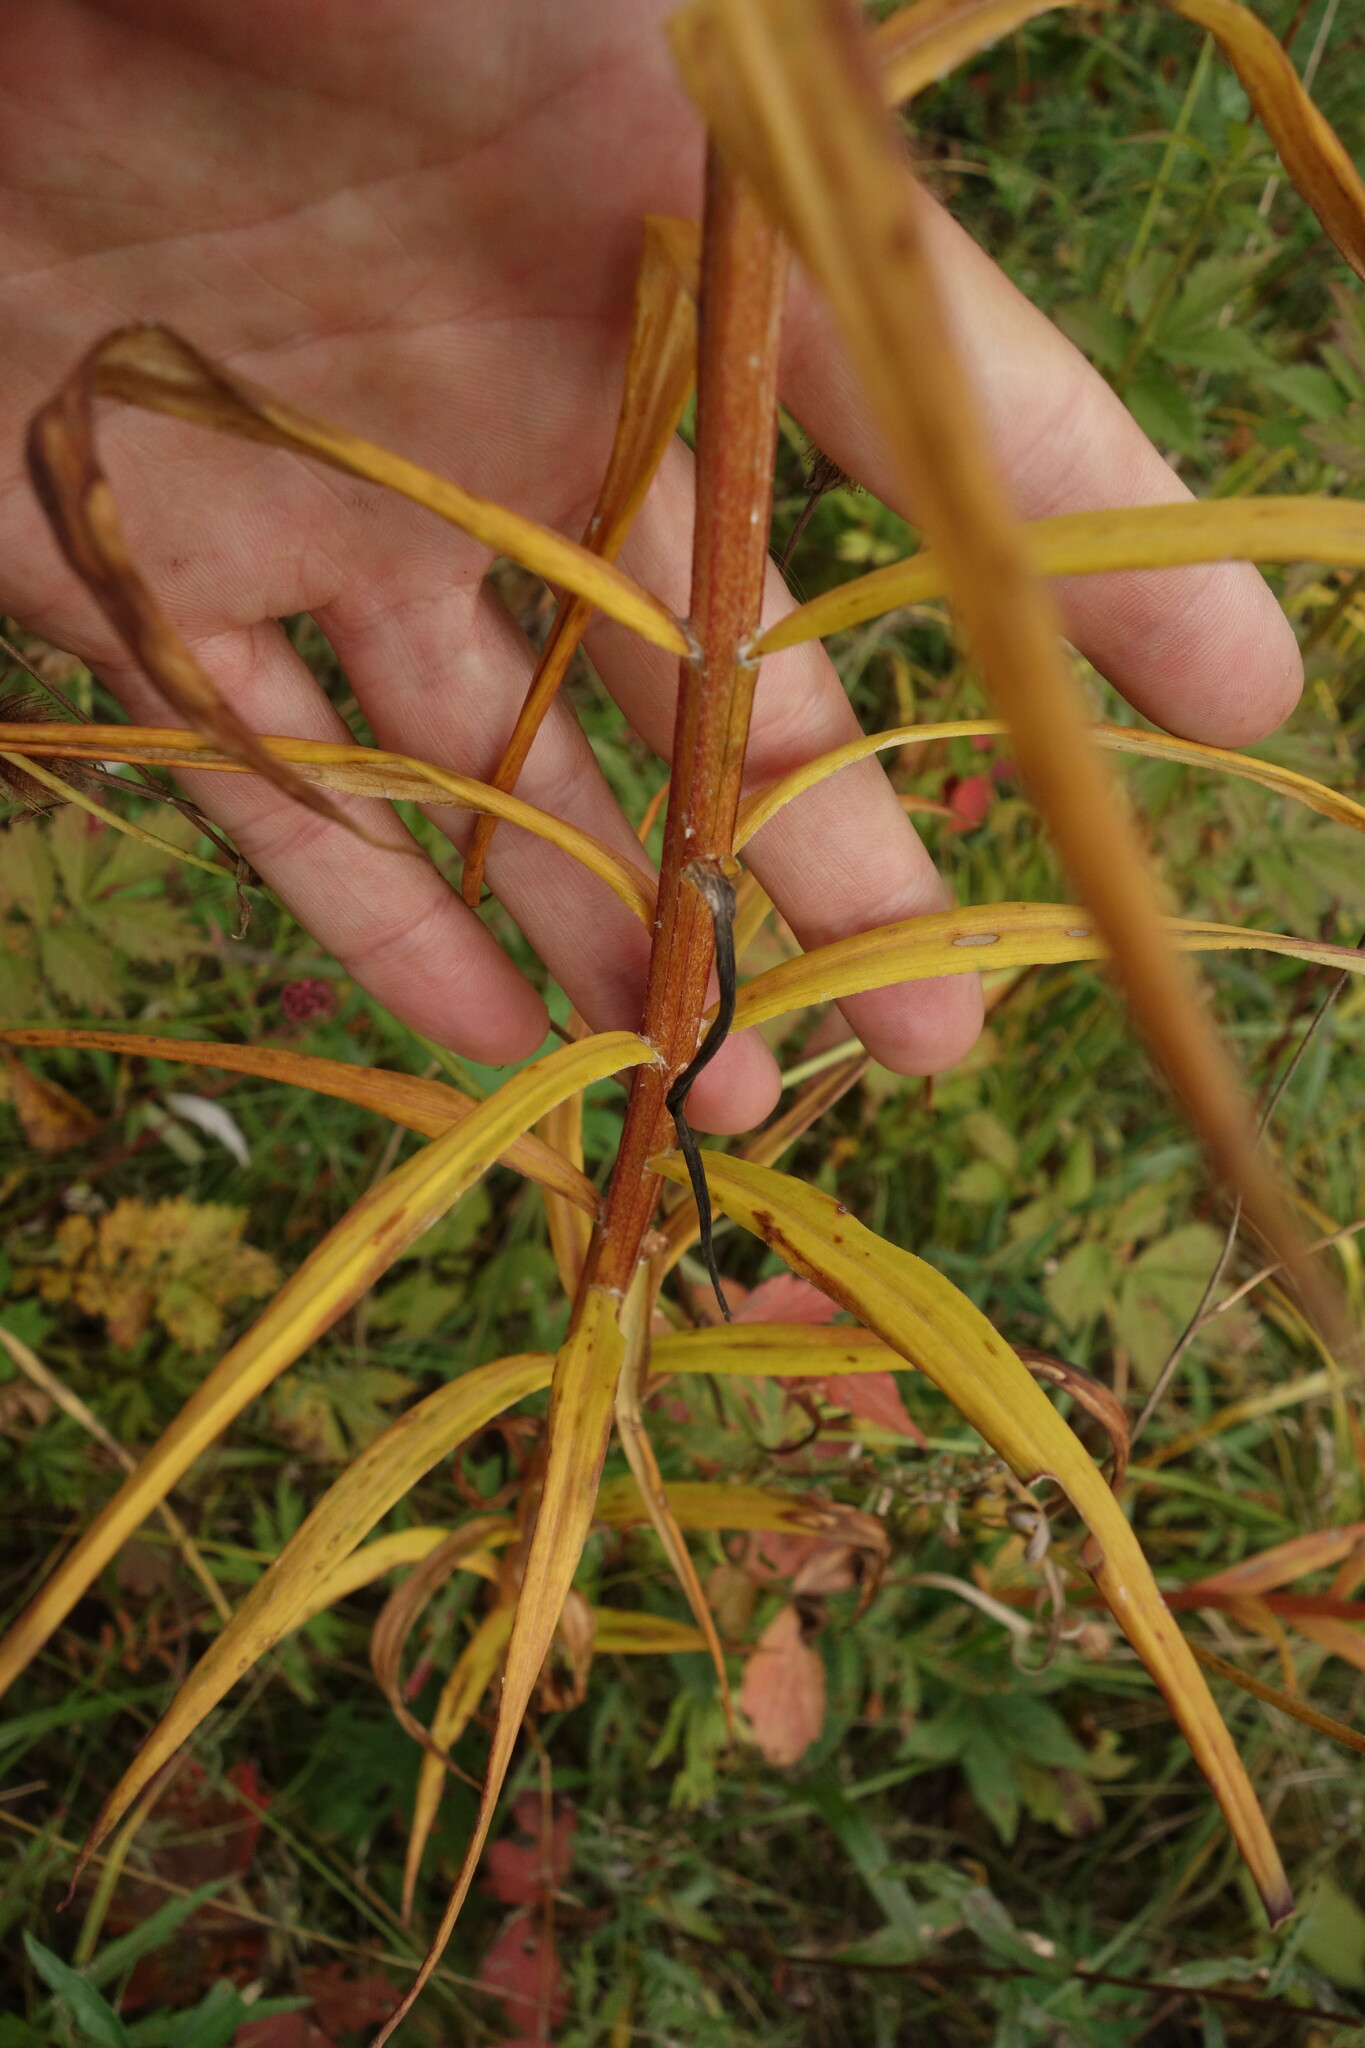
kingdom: Plantae
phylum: Tracheophyta
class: Liliopsida
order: Liliales
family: Liliaceae
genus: Lilium
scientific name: Lilium pensylvanicum
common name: Candlestick lily
